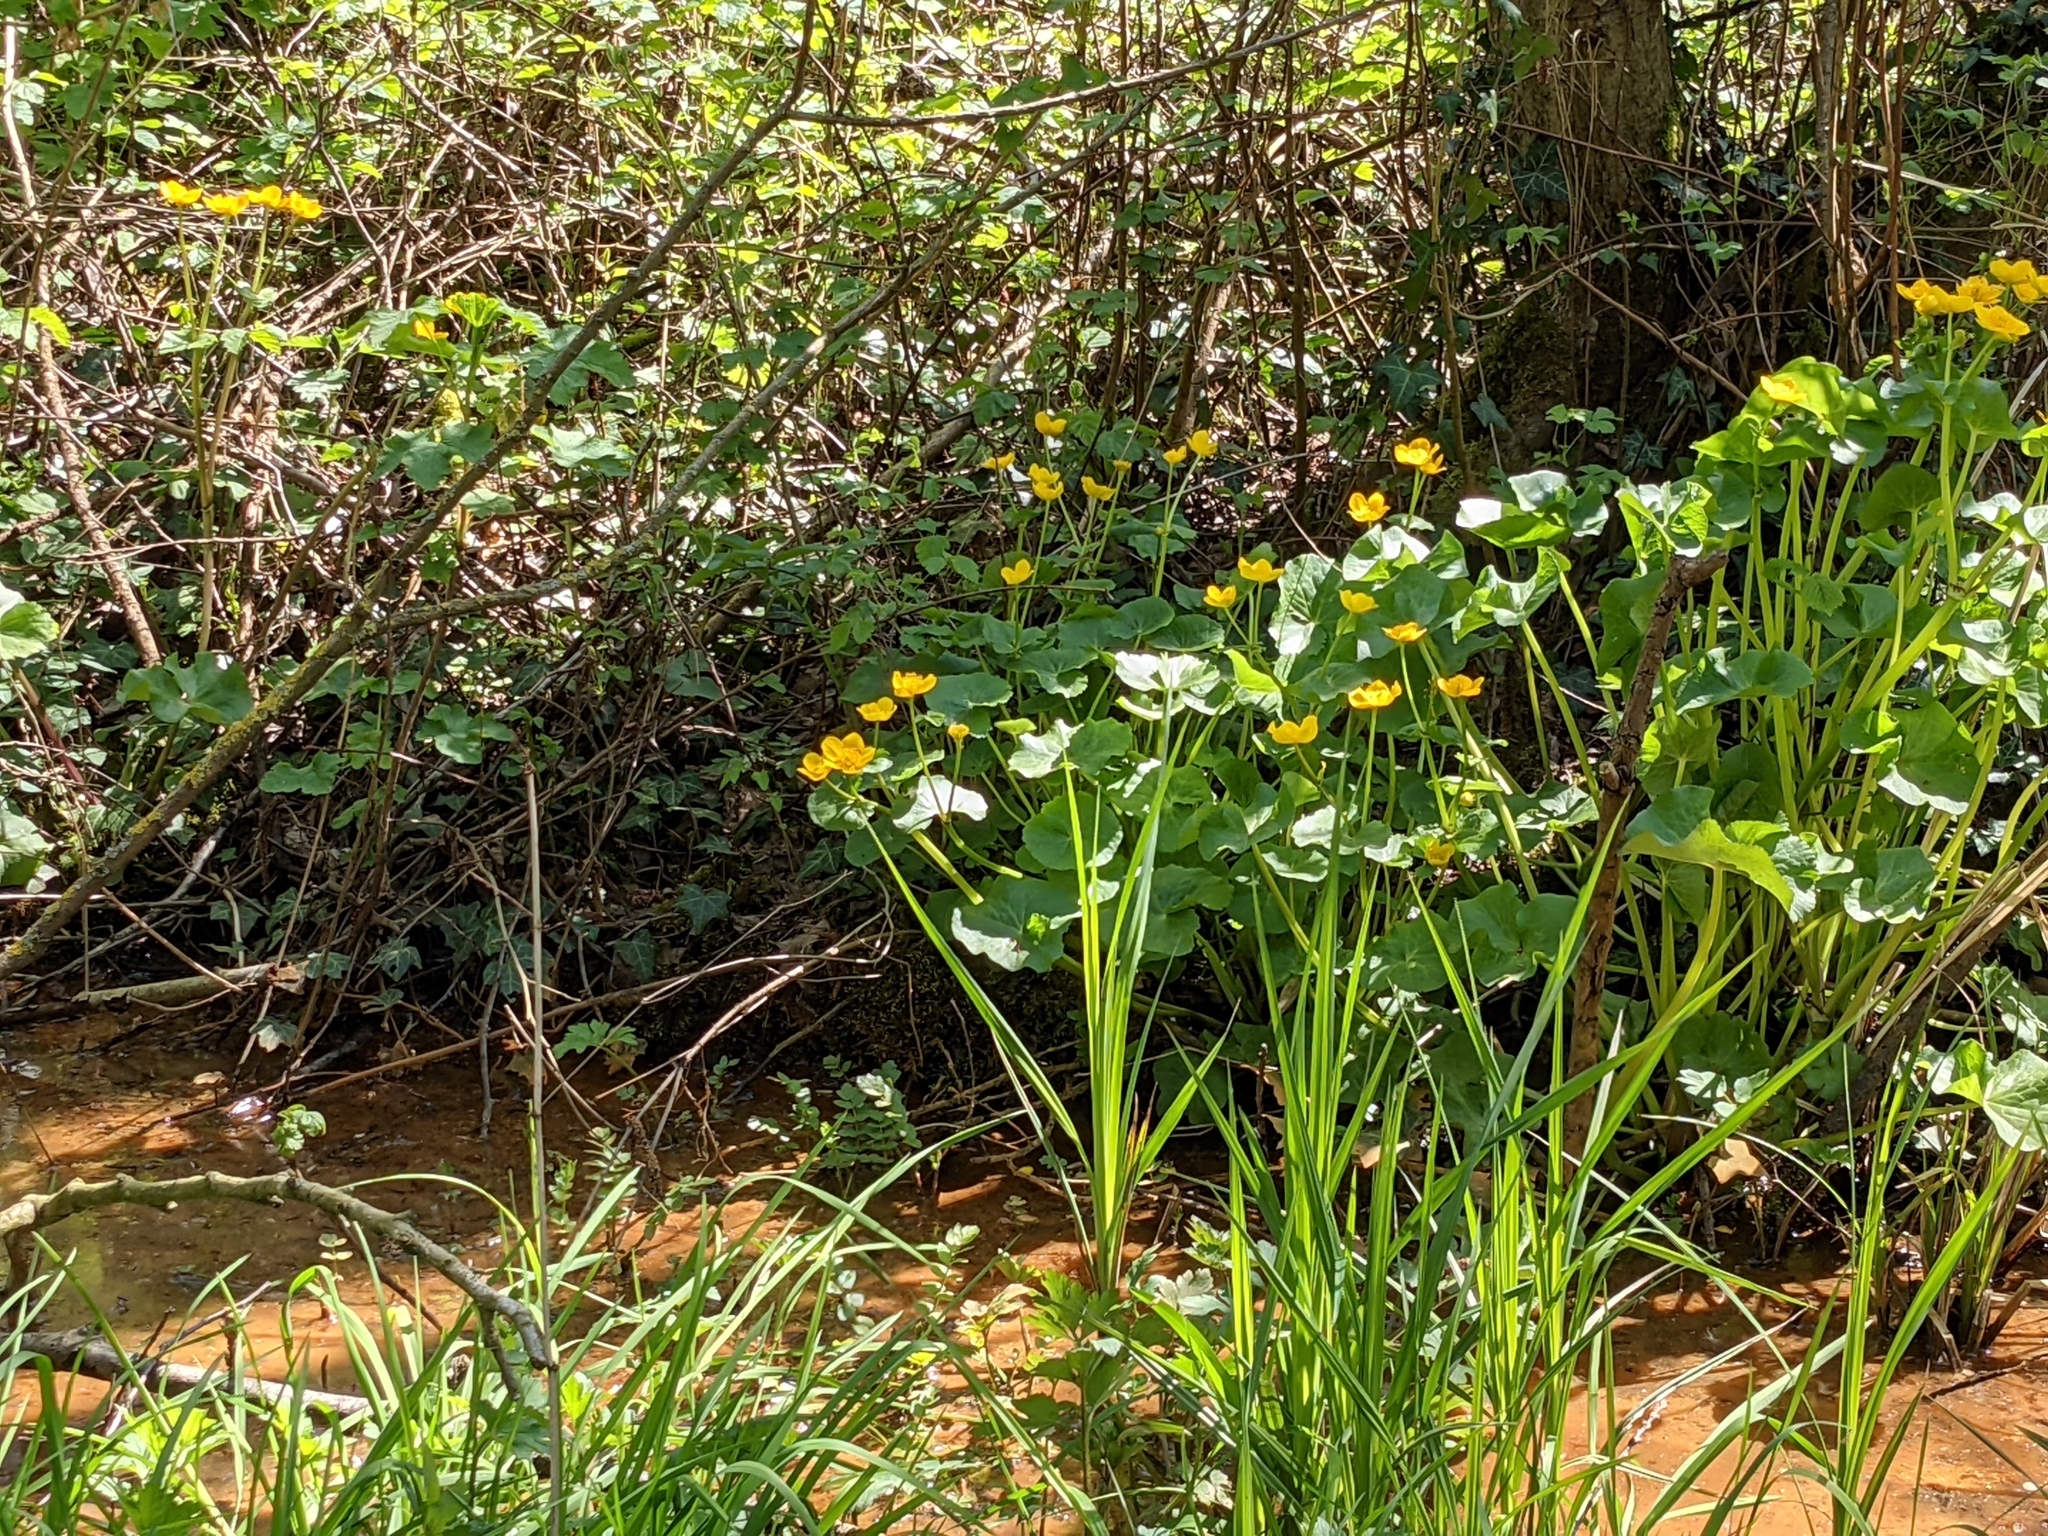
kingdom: Plantae
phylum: Tracheophyta
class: Magnoliopsida
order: Ranunculales
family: Ranunculaceae
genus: Caltha
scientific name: Caltha palustris
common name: Marsh marigold
